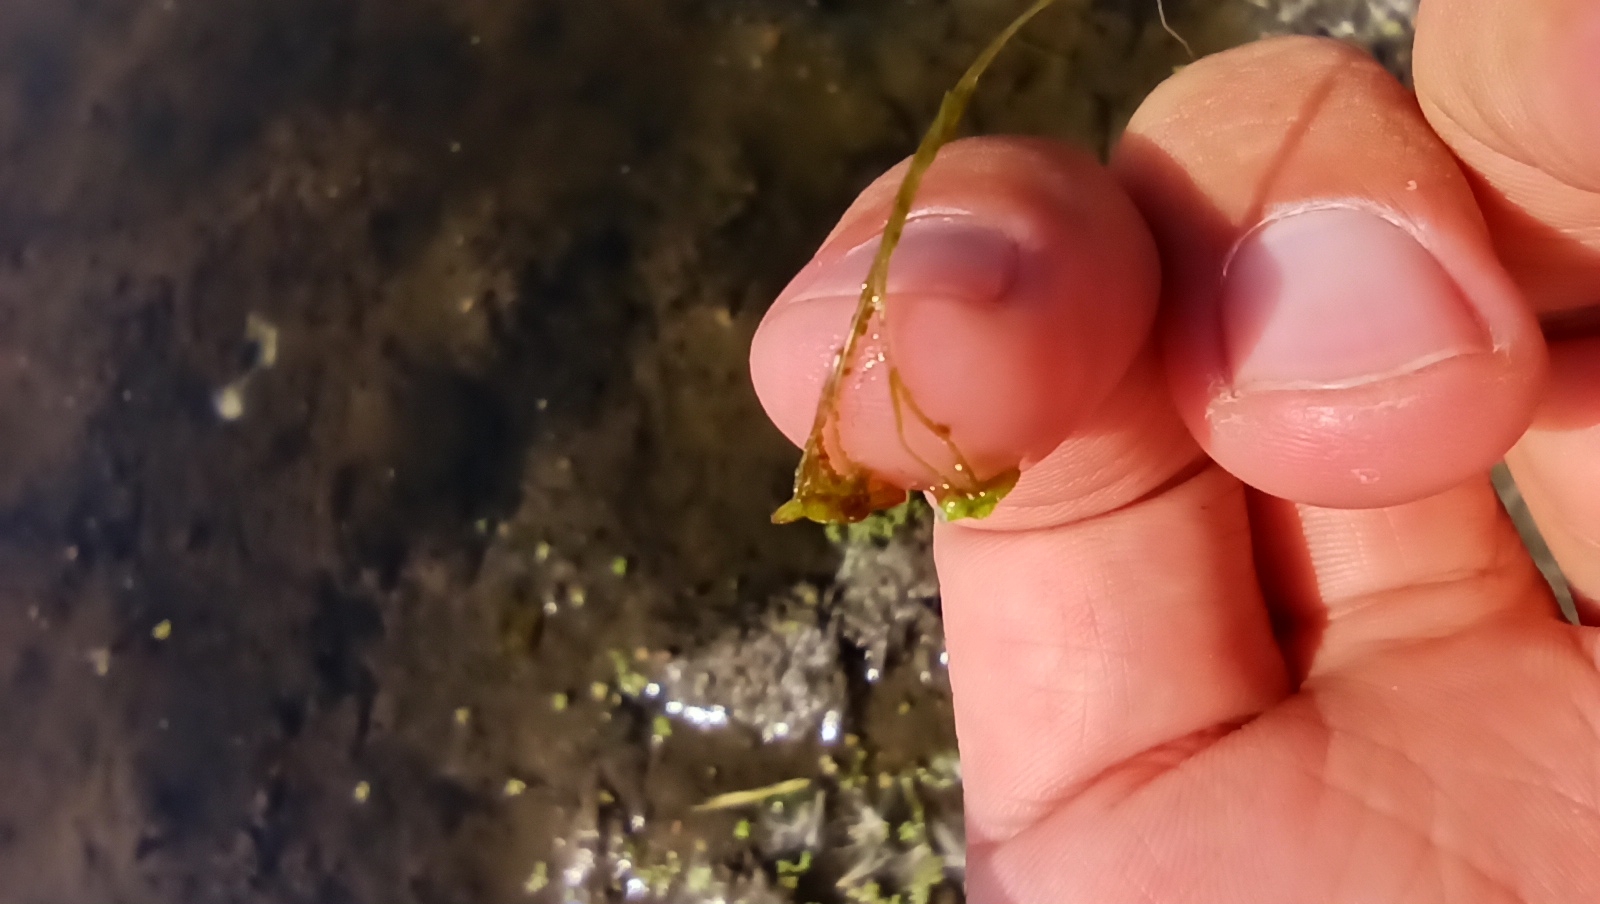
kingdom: Plantae
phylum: Tracheophyta
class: Liliopsida
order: Alismatales
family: Araceae
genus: Lemna
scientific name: Lemna minor
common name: Common duckweed
